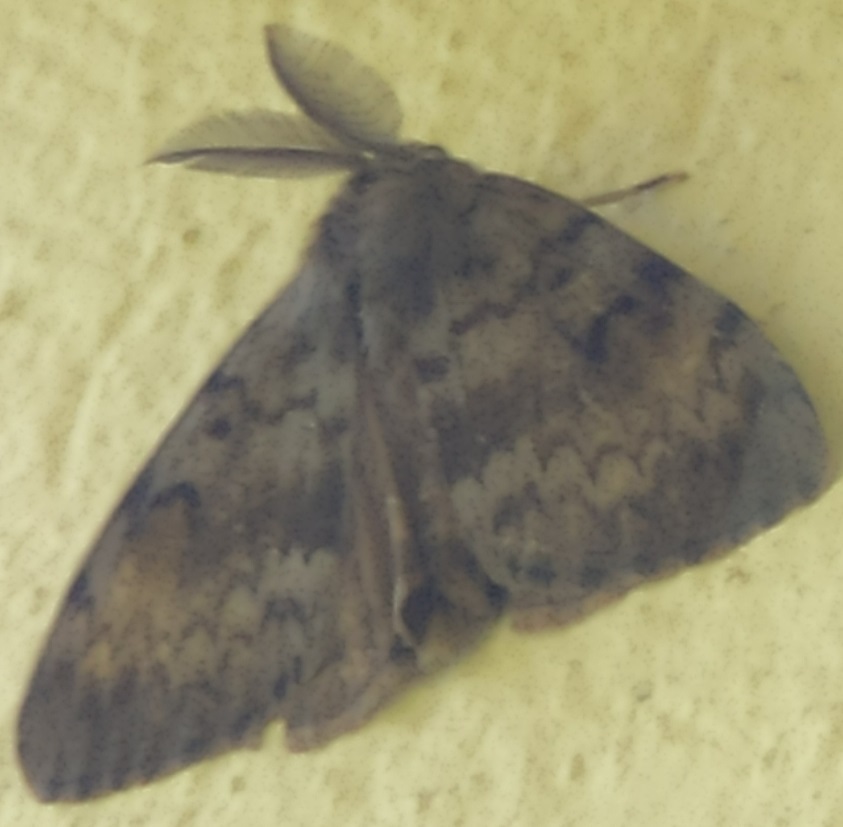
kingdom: Animalia
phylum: Arthropoda
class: Insecta
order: Lepidoptera
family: Erebidae
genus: Lymantria
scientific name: Lymantria dispar
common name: Gypsy moth
